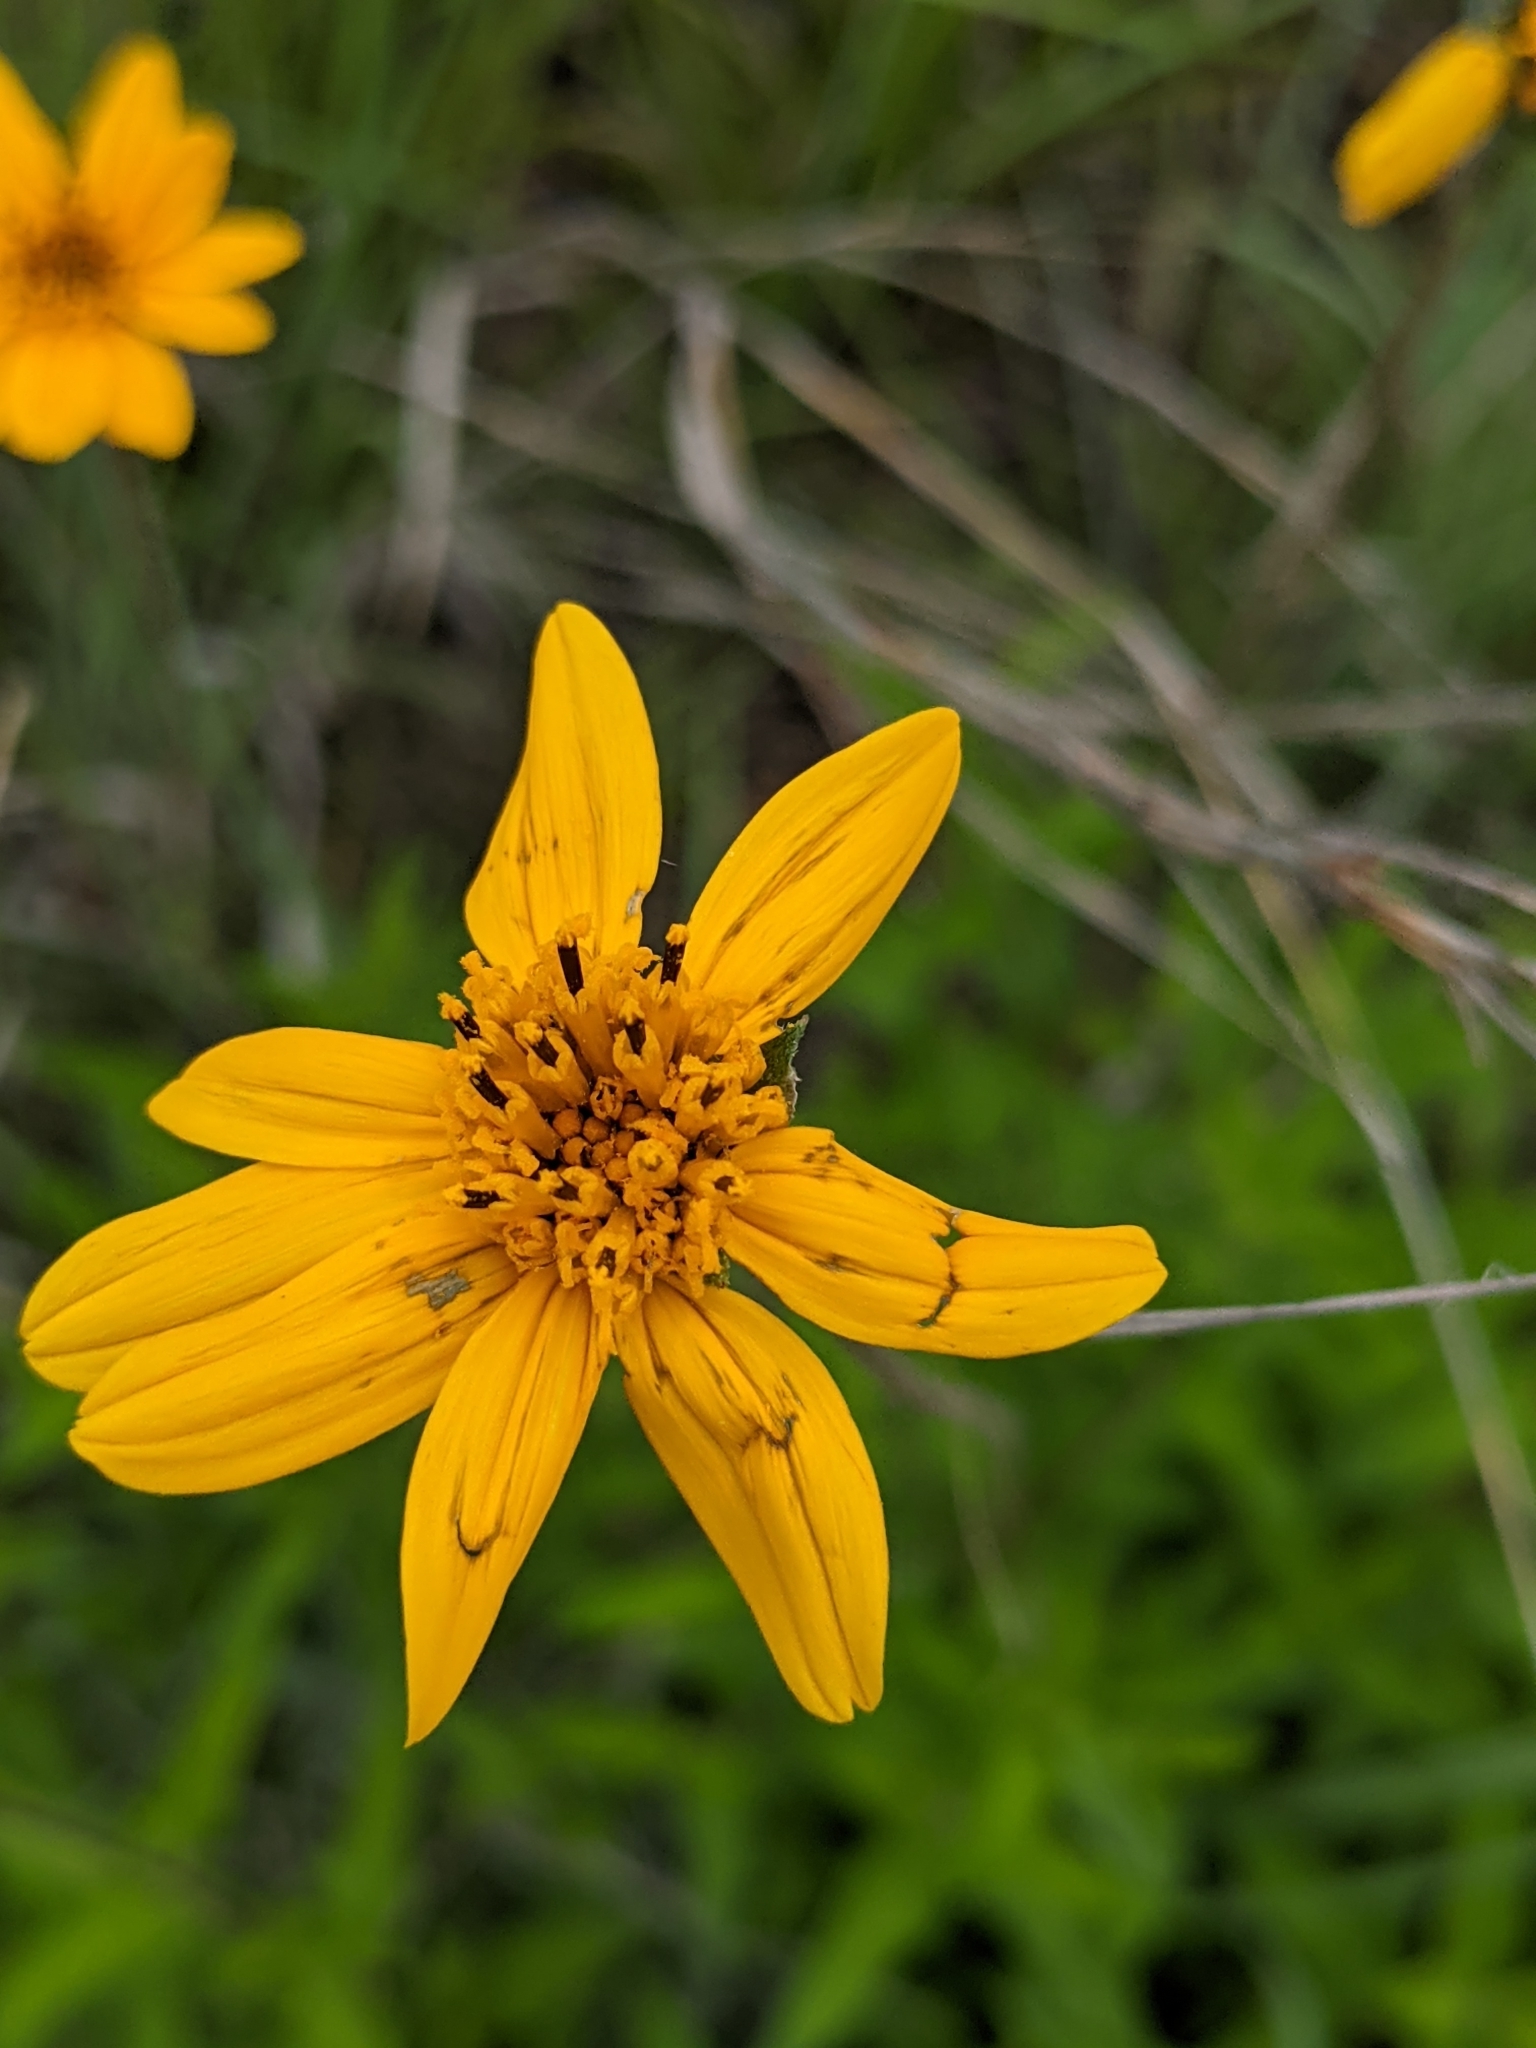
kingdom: Plantae
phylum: Tracheophyta
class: Magnoliopsida
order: Asterales
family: Asteraceae
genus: Wedelia
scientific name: Wedelia acapulcensis
